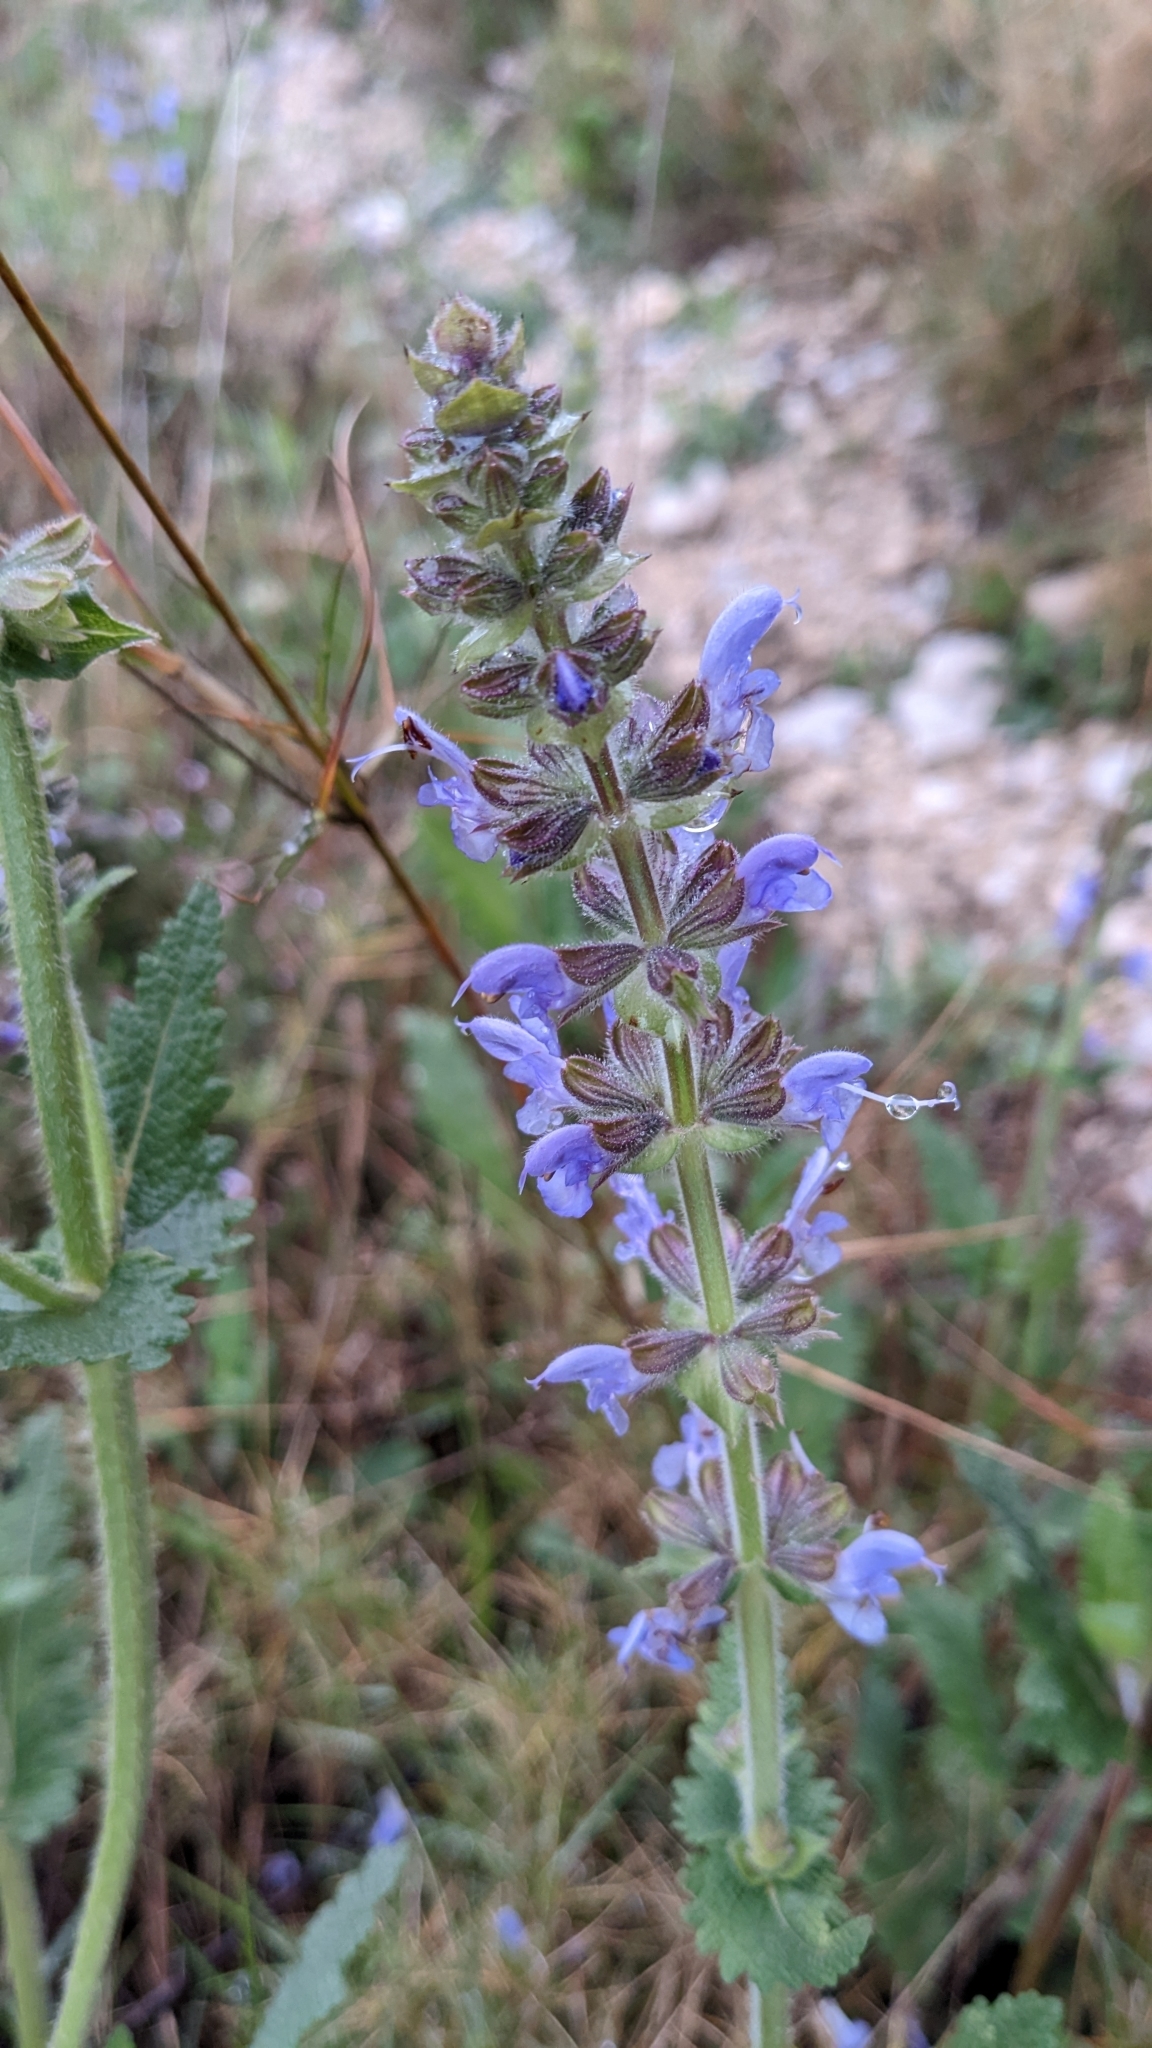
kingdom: Plantae
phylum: Tracheophyta
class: Magnoliopsida
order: Lamiales
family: Lamiaceae
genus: Salvia
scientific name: Salvia verbenaca
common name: Wild clary
